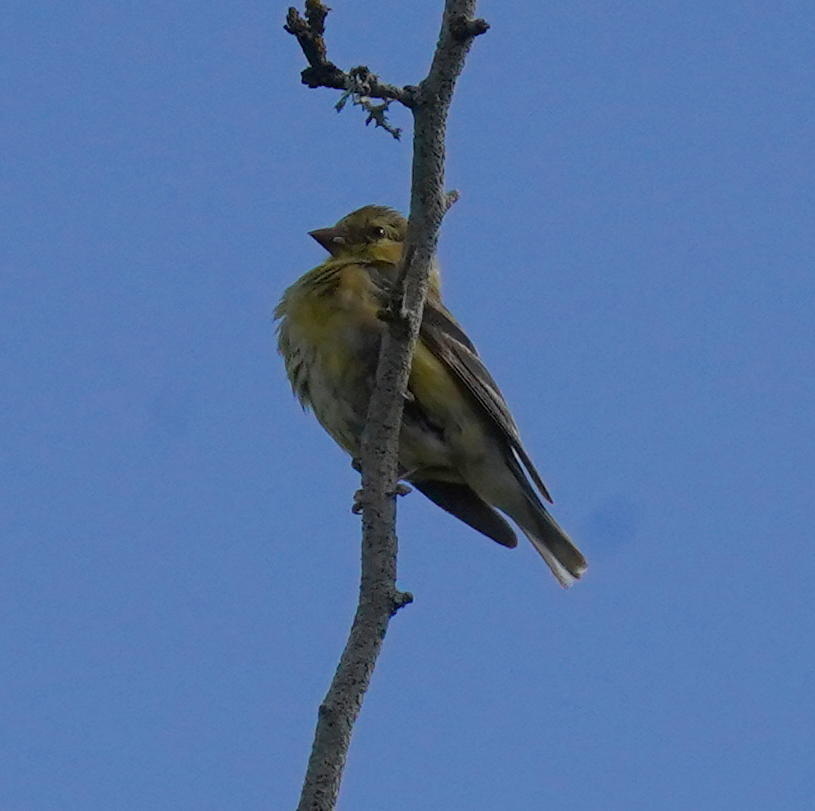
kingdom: Animalia
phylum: Chordata
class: Aves
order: Passeriformes
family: Fringillidae
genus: Spinus
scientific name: Spinus tristis
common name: American goldfinch
